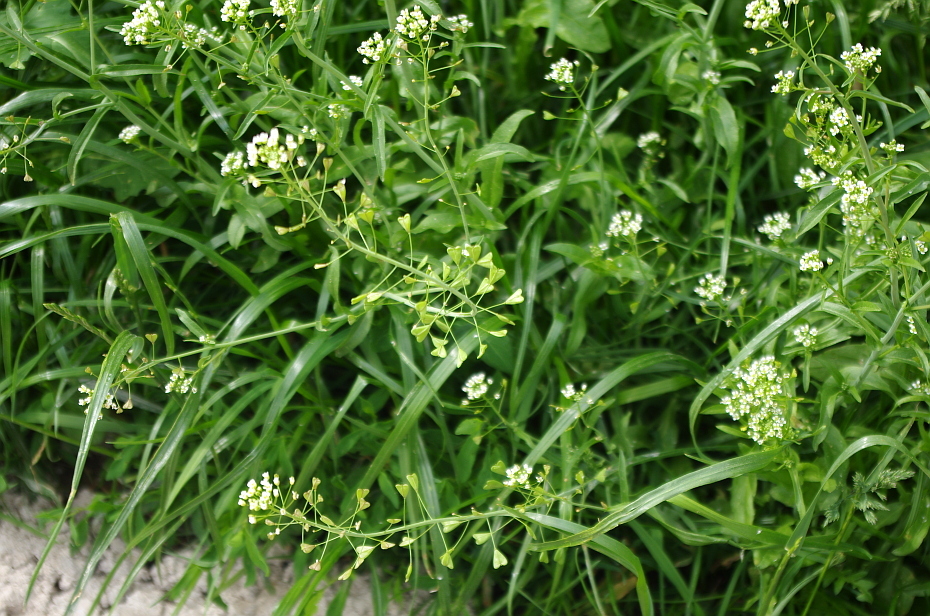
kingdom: Plantae
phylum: Tracheophyta
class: Magnoliopsida
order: Brassicales
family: Brassicaceae
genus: Capsella
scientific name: Capsella bursa-pastoris
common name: Shepherd's purse
